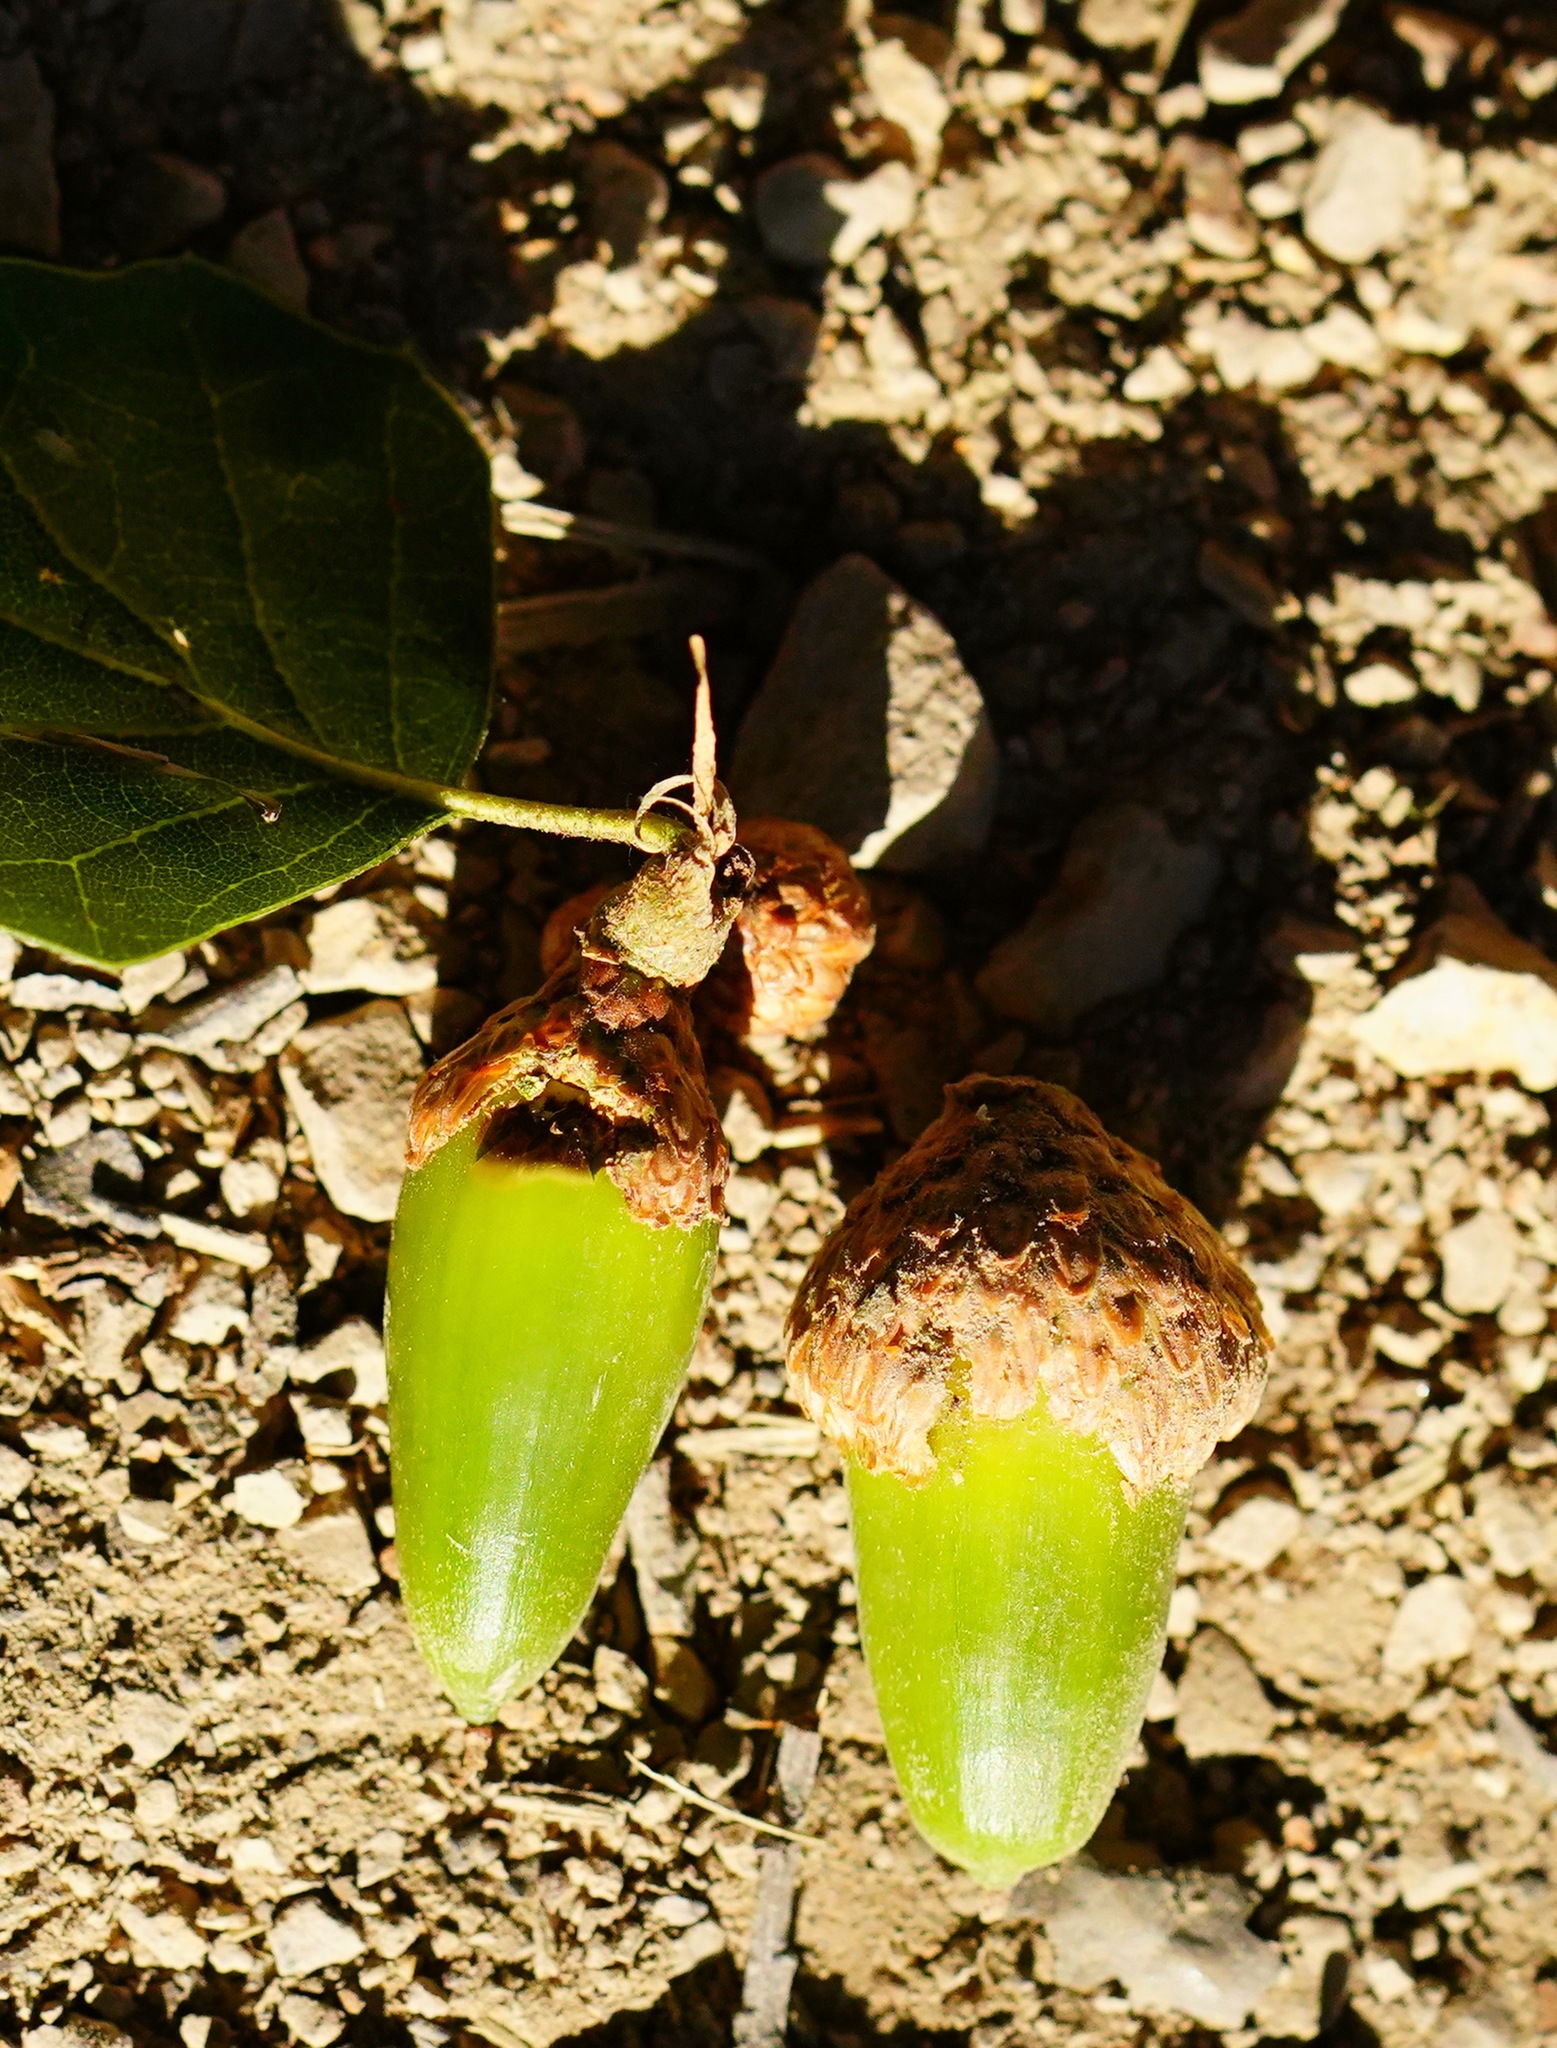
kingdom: Plantae
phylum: Tracheophyta
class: Magnoliopsida
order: Fagales
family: Fagaceae
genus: Quercus
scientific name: Quercus agrifolia
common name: California live oak
